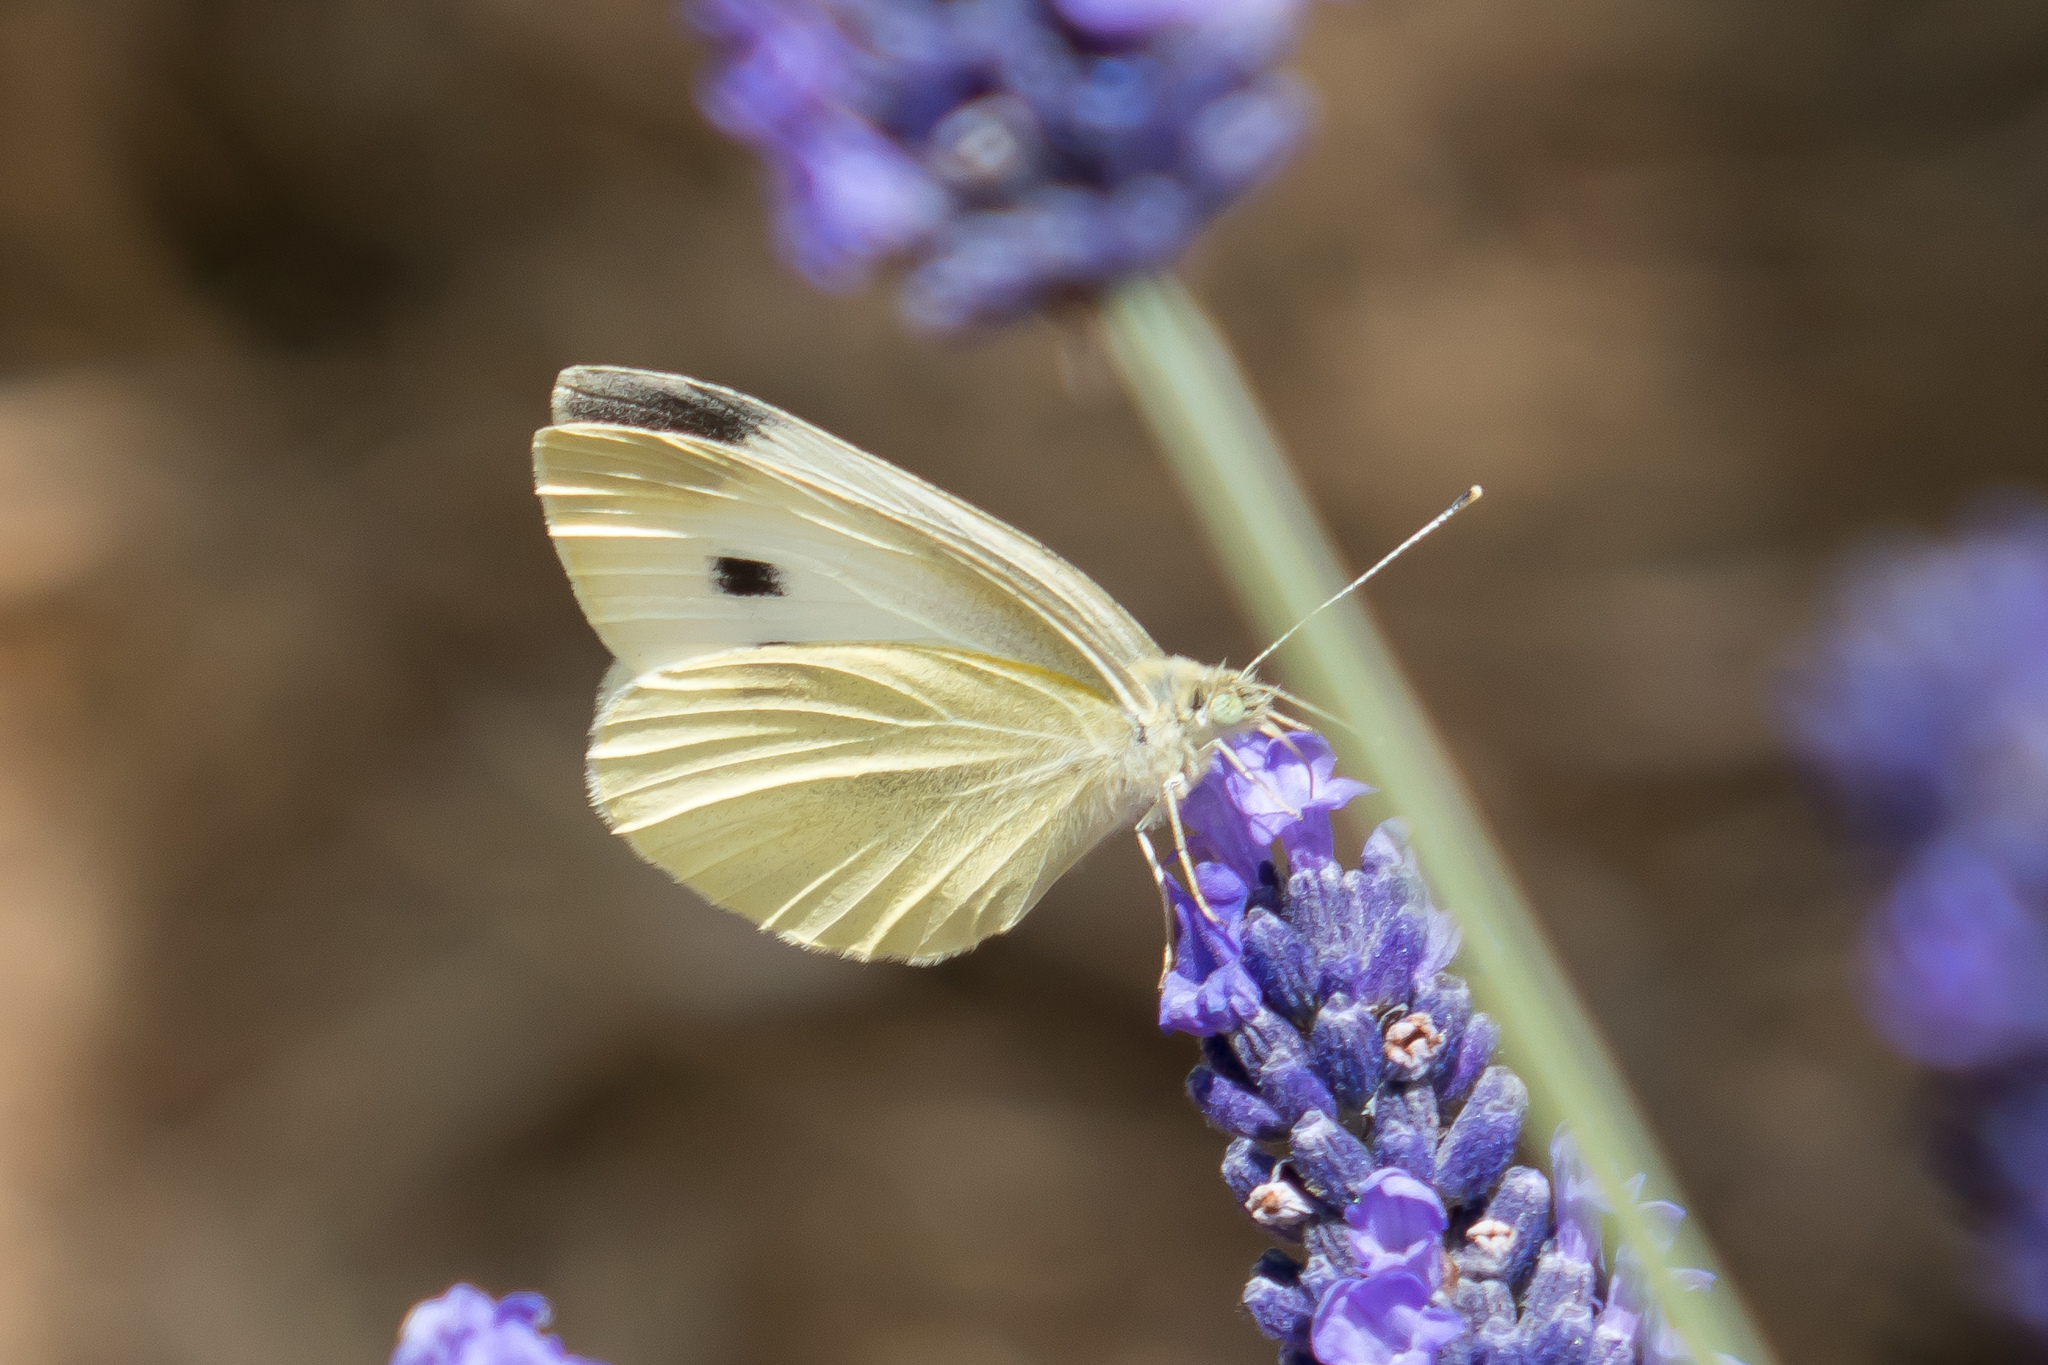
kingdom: Animalia
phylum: Arthropoda
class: Insecta
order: Lepidoptera
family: Pieridae
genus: Pieris
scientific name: Pieris rapae
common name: Small white
